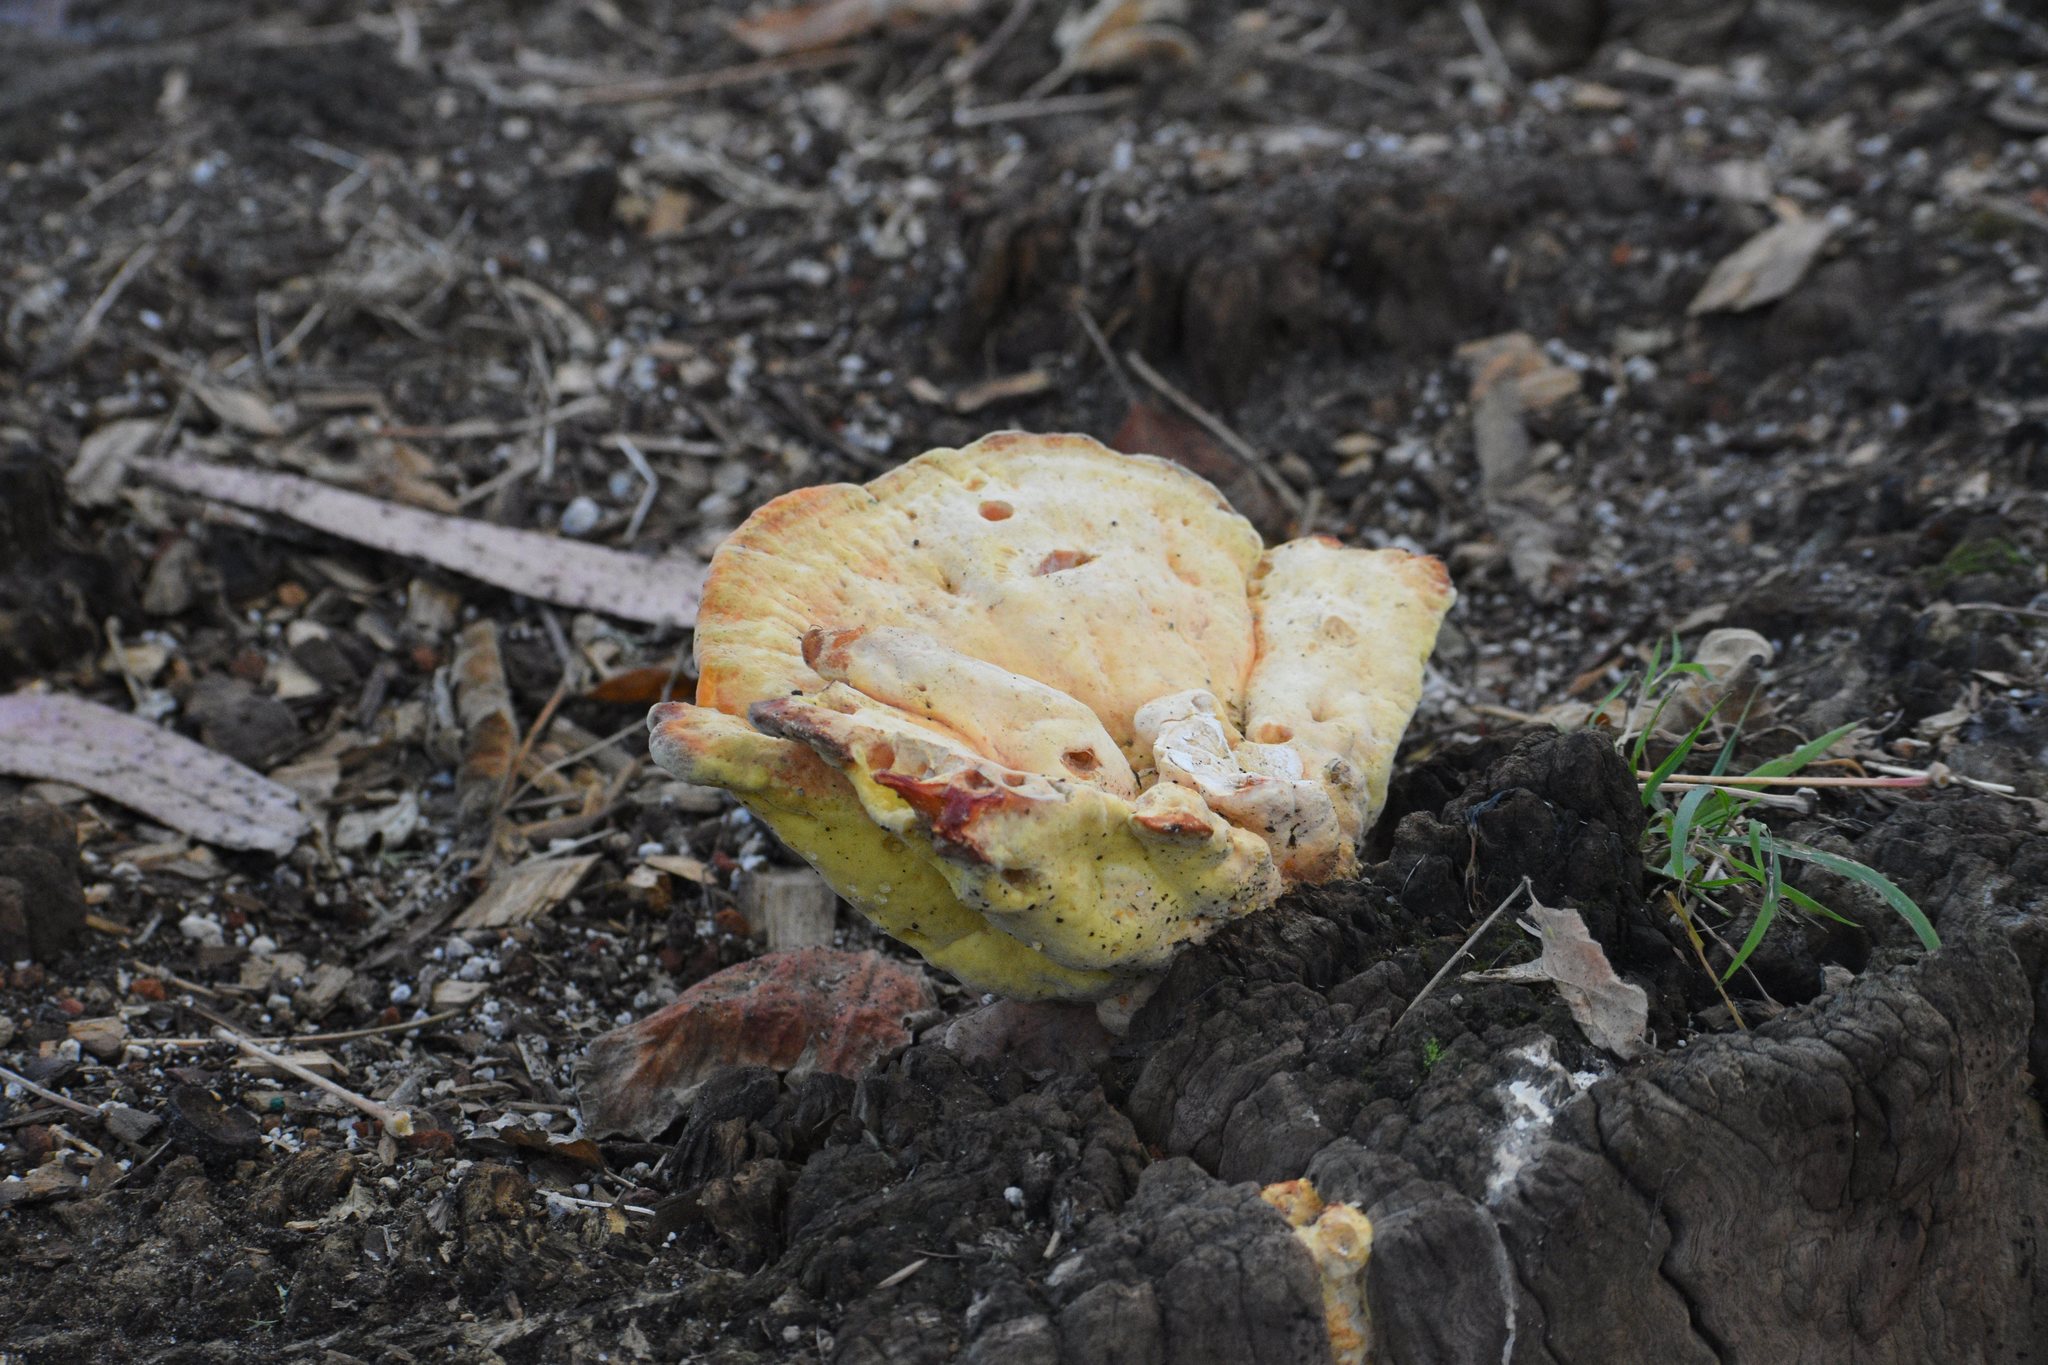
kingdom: Fungi
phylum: Basidiomycota
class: Agaricomycetes
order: Polyporales
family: Laetiporaceae
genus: Laetiporus
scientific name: Laetiporus gilbertsonii
